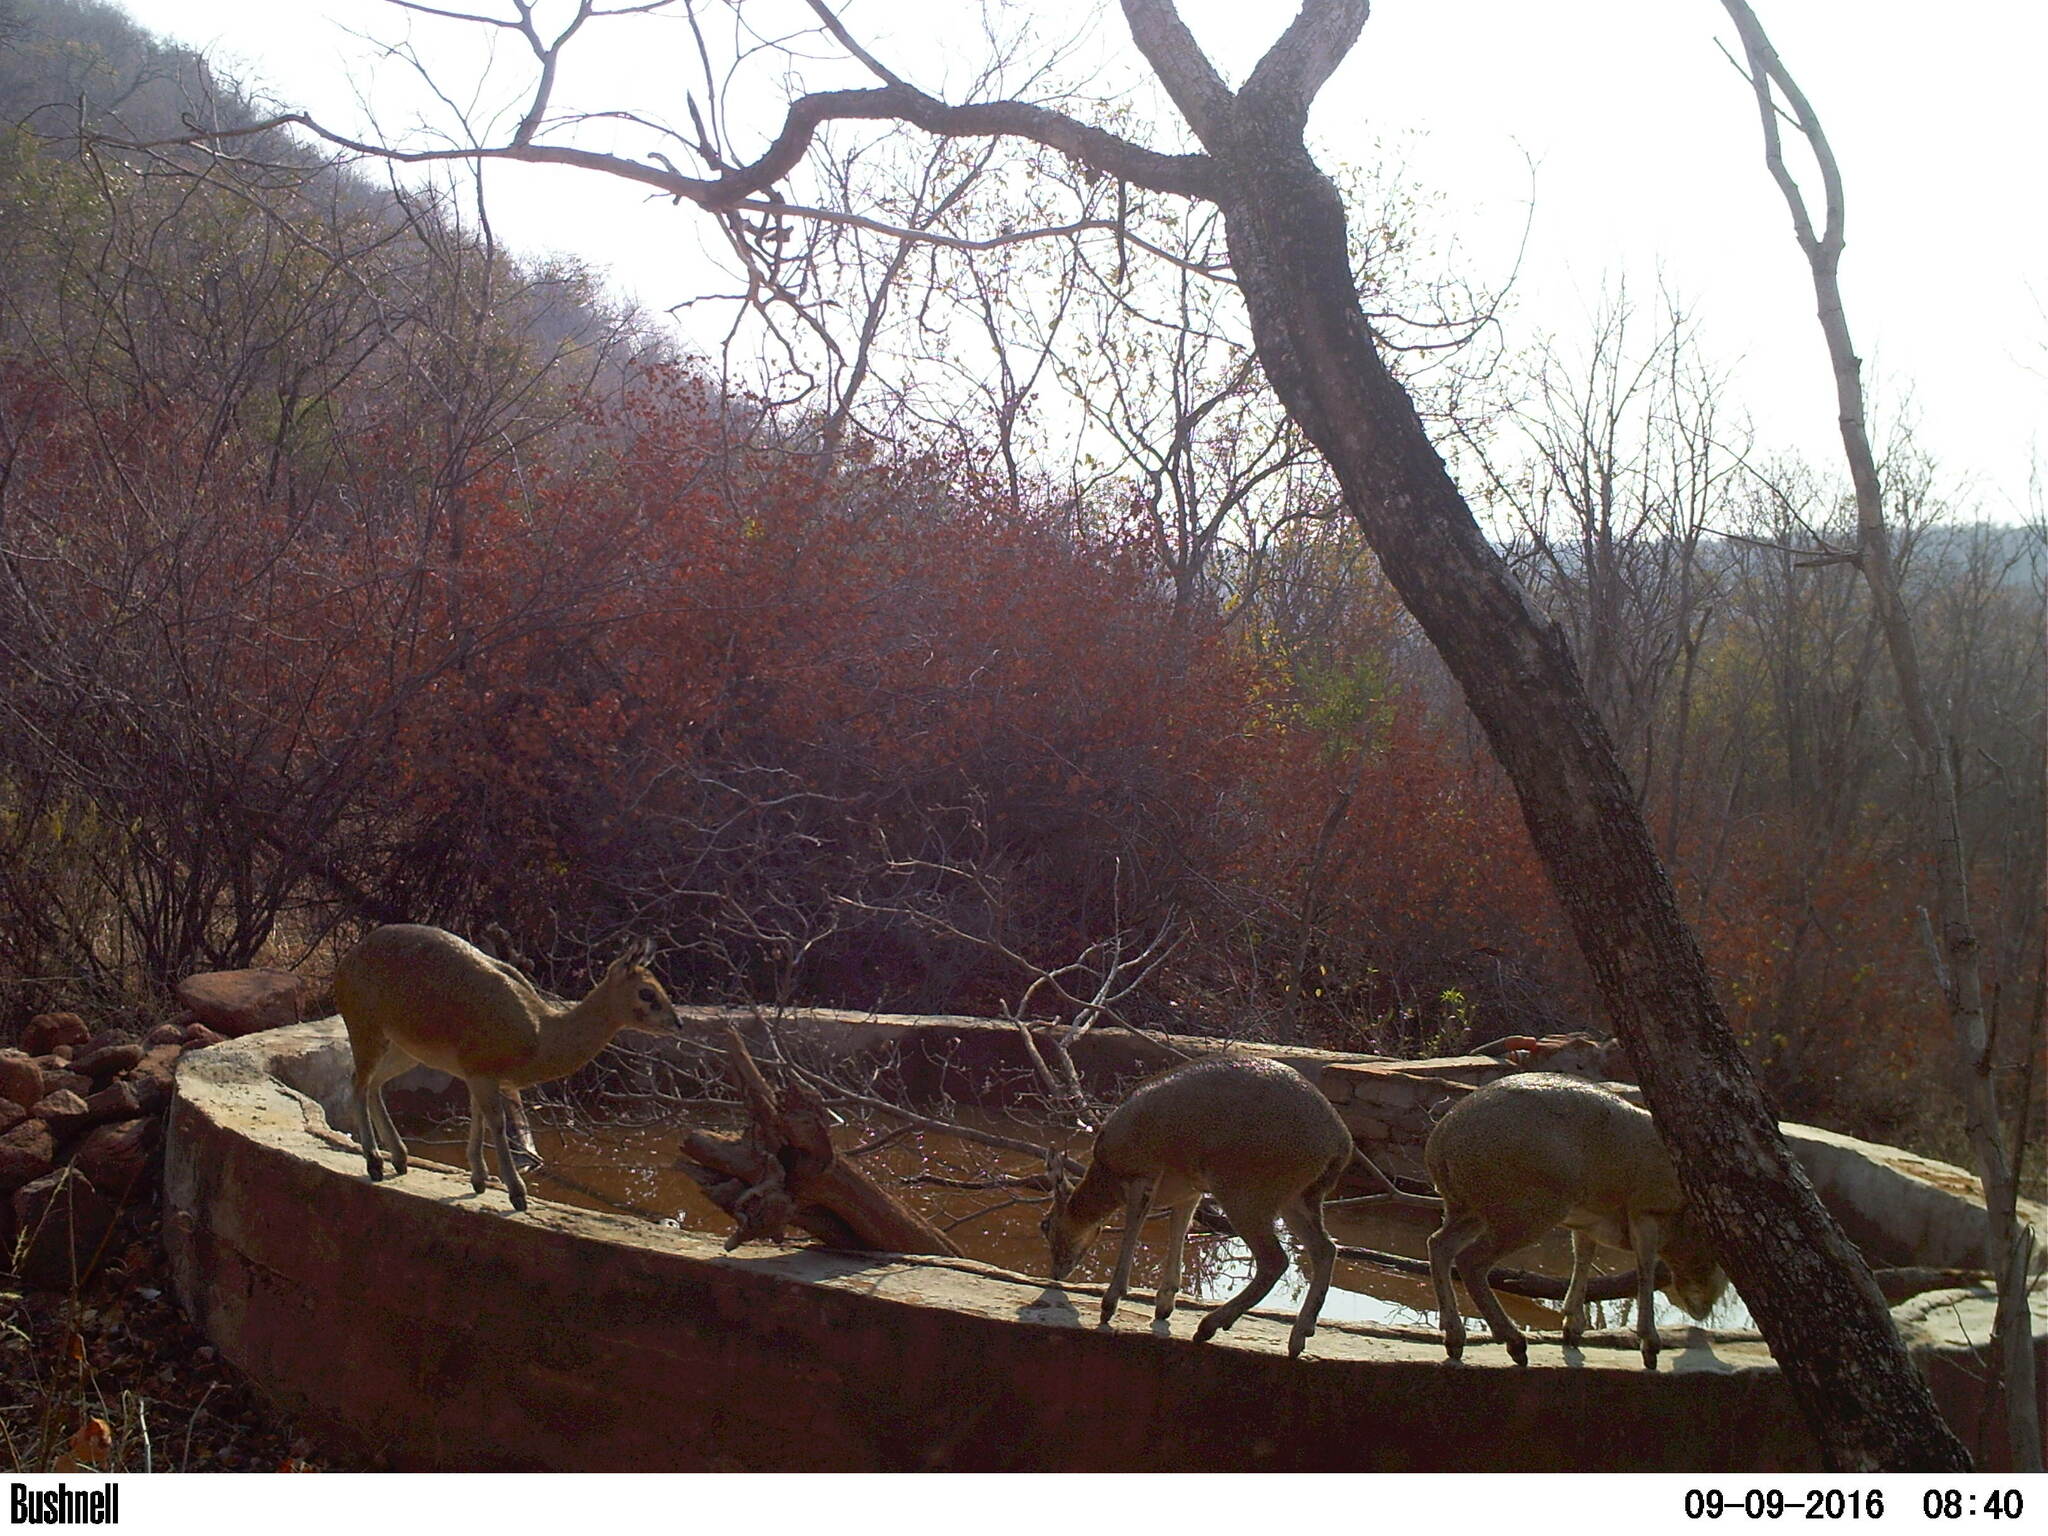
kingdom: Animalia
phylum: Chordata
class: Mammalia
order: Artiodactyla
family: Bovidae
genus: Oreotragus
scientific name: Oreotragus oreotragus
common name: Klipspringer
